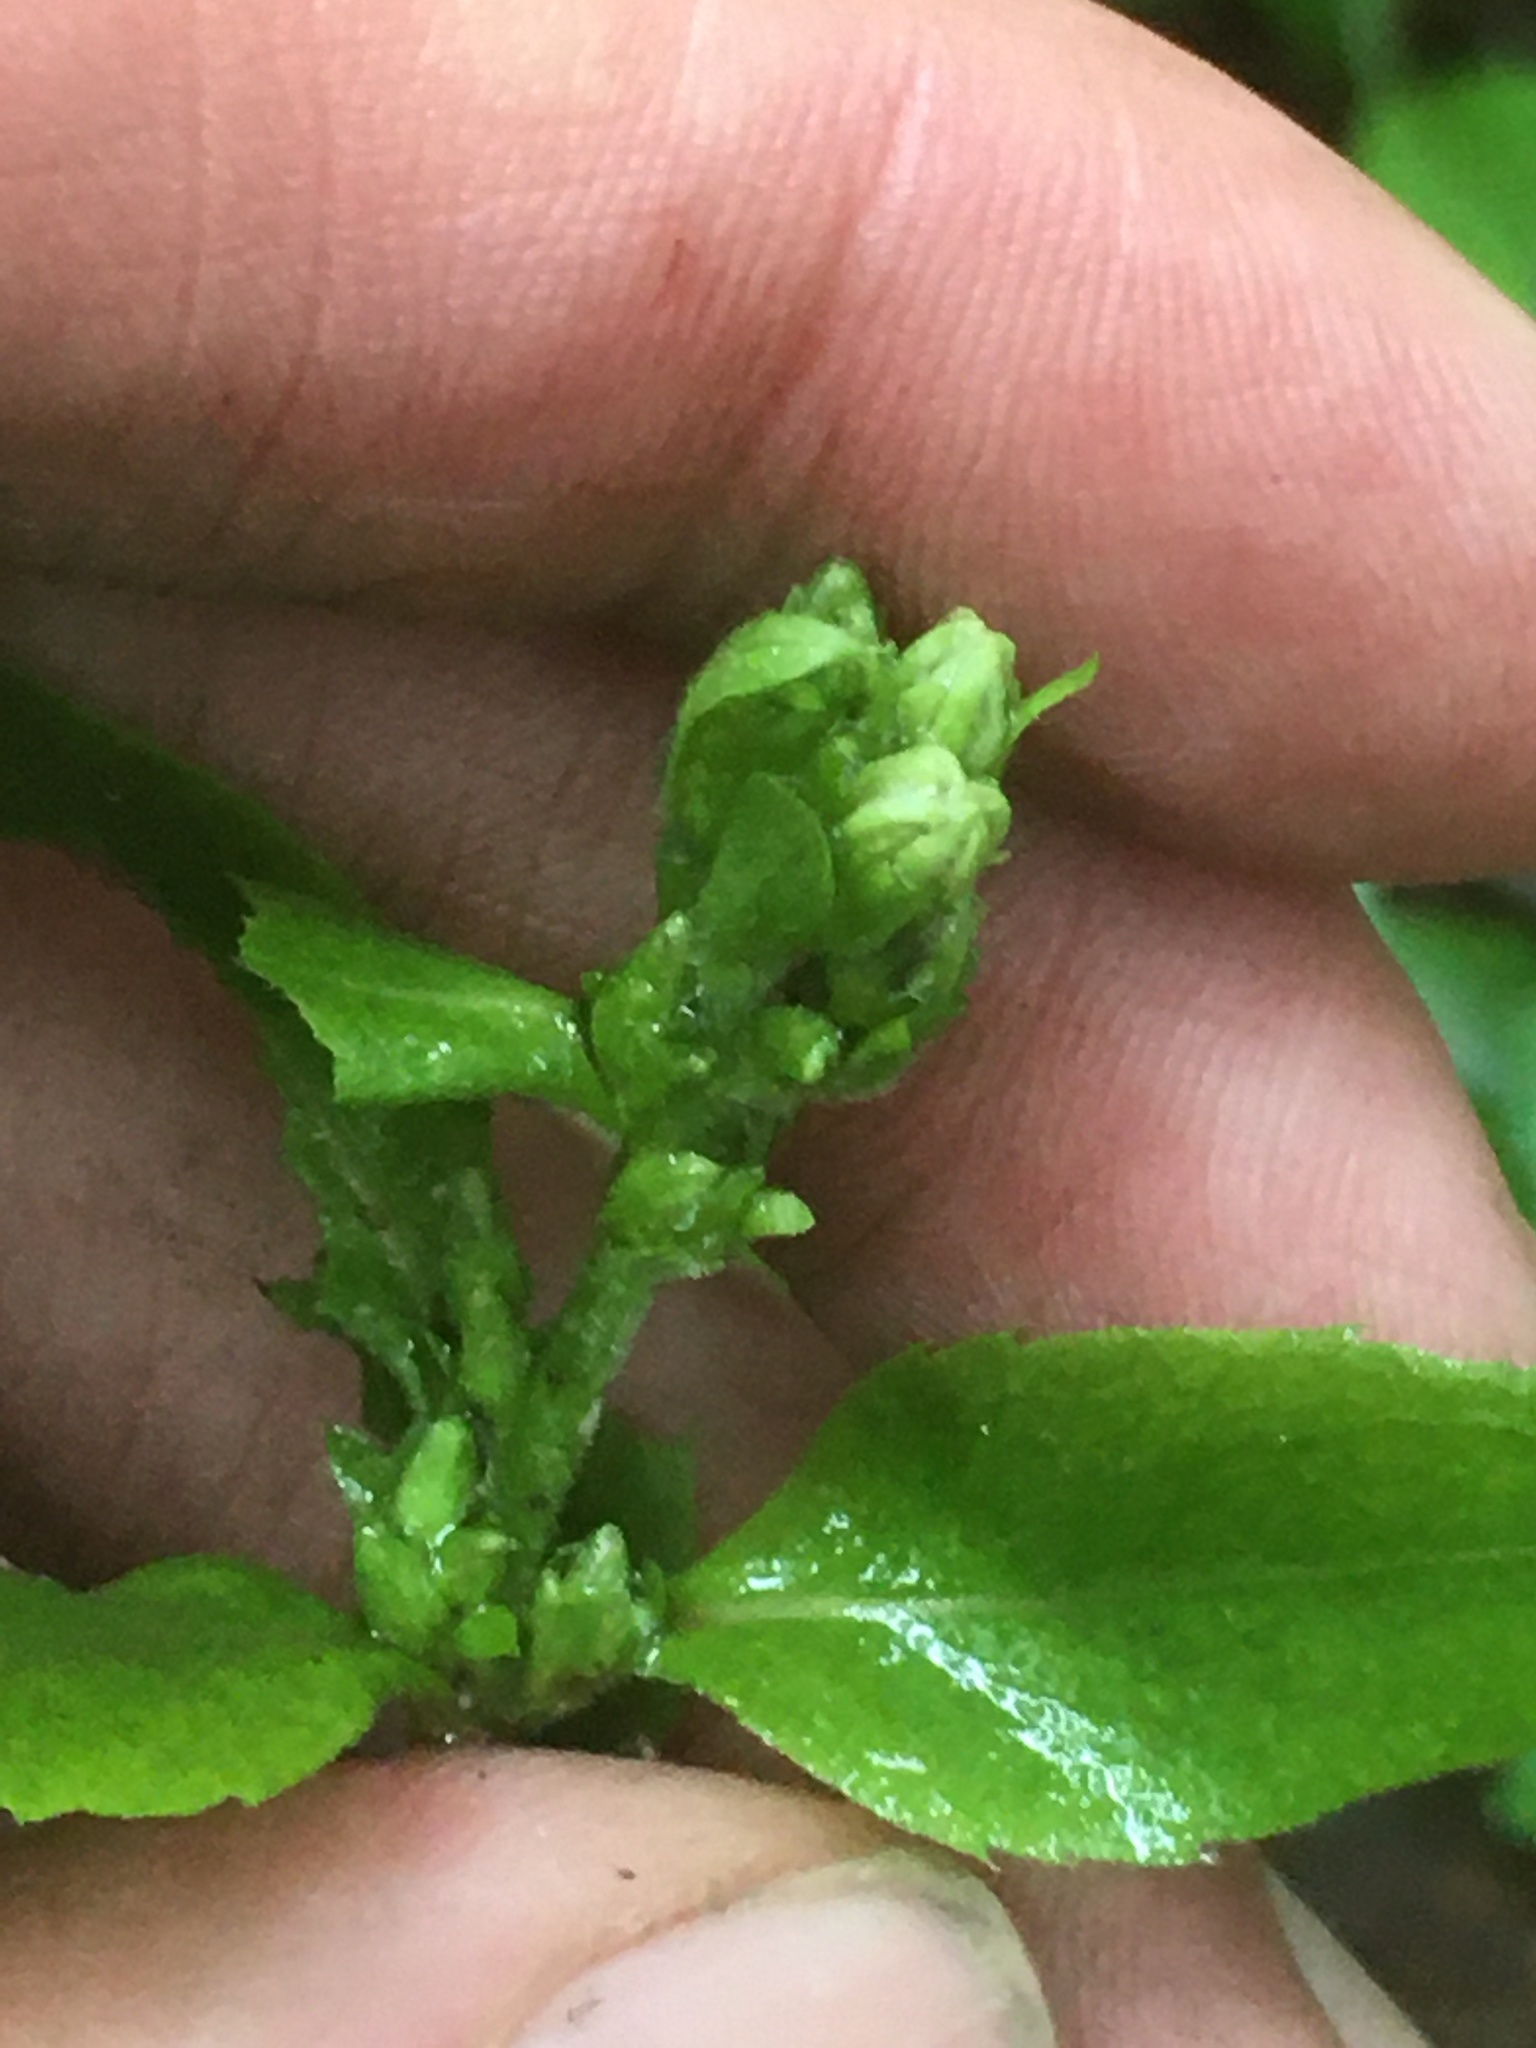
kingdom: Plantae
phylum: Tracheophyta
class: Magnoliopsida
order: Asterales
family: Asteraceae
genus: Solidago
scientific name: Solidago macrophylla
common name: Large-leaved goldenrod
